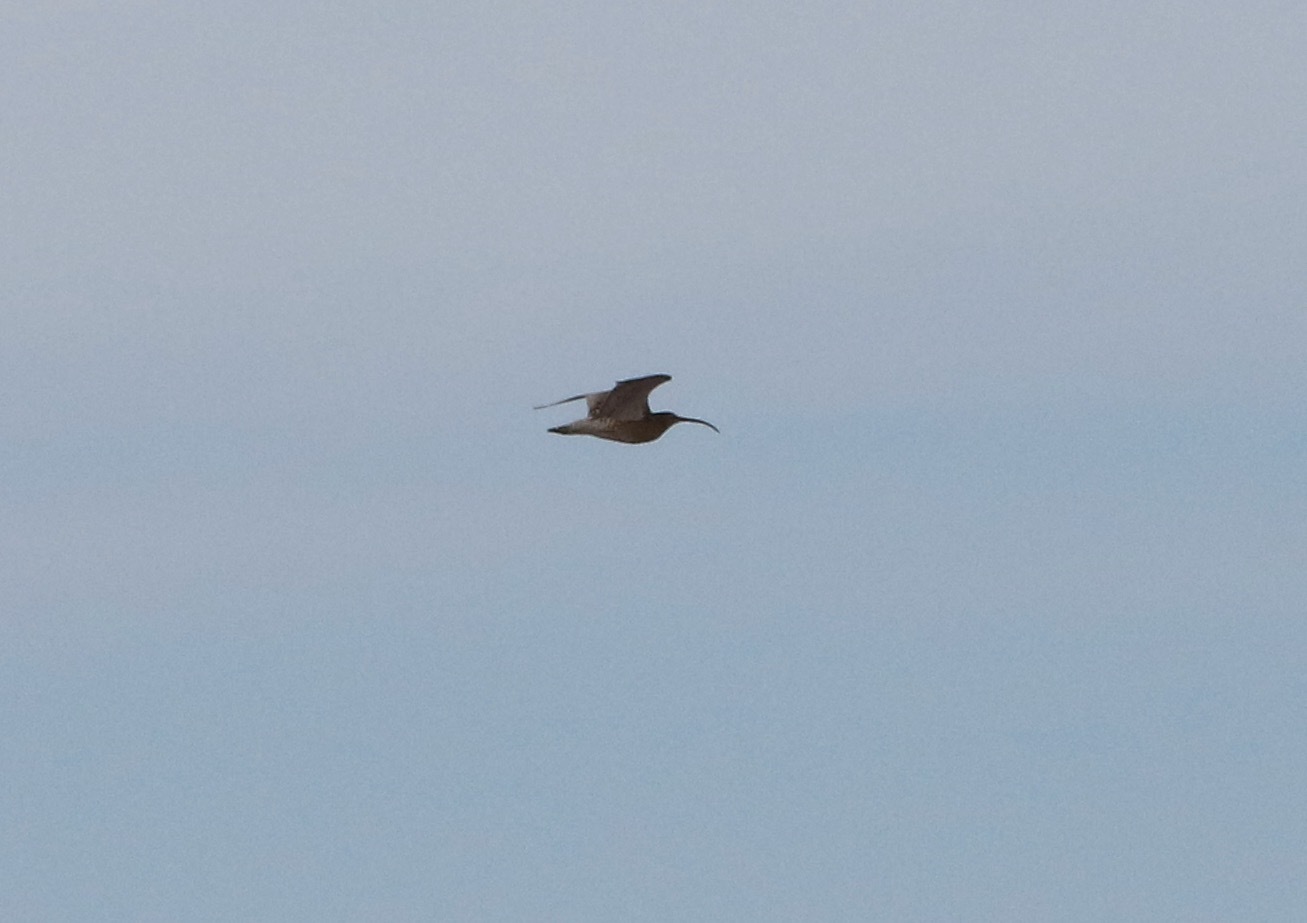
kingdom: Animalia
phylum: Chordata
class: Aves
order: Charadriiformes
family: Scolopacidae
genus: Numenius
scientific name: Numenius arquata
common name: Eurasian curlew
